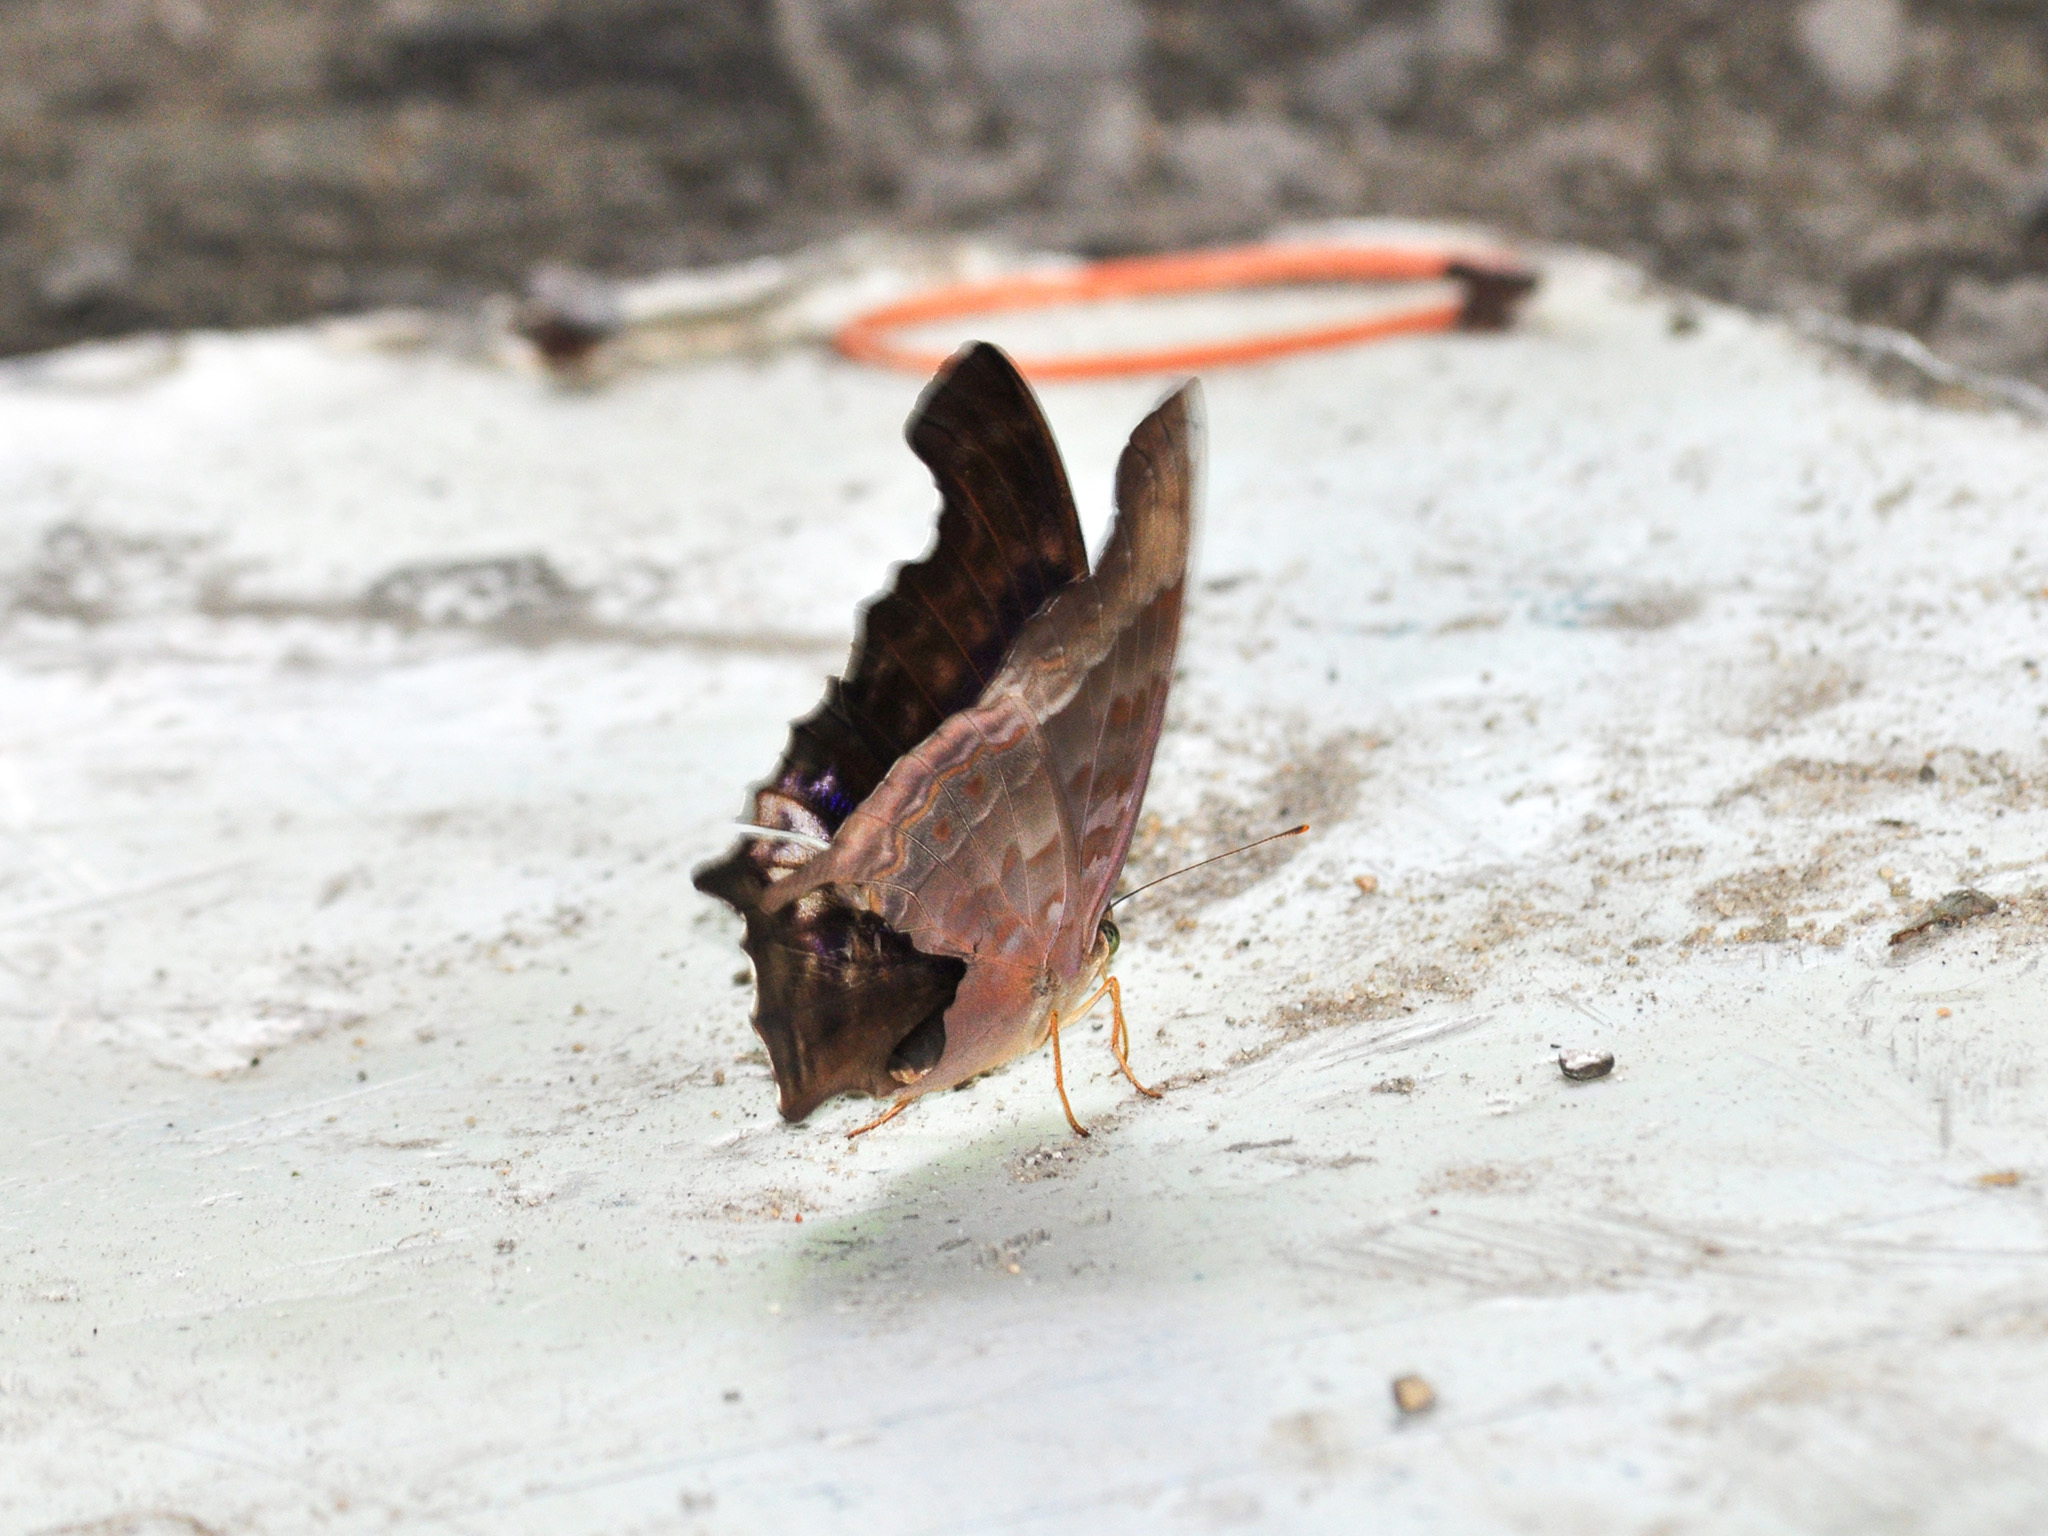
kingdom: Animalia
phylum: Arthropoda
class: Insecta
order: Lepidoptera
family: Nymphalidae
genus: Terinos
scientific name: Terinos atlita
